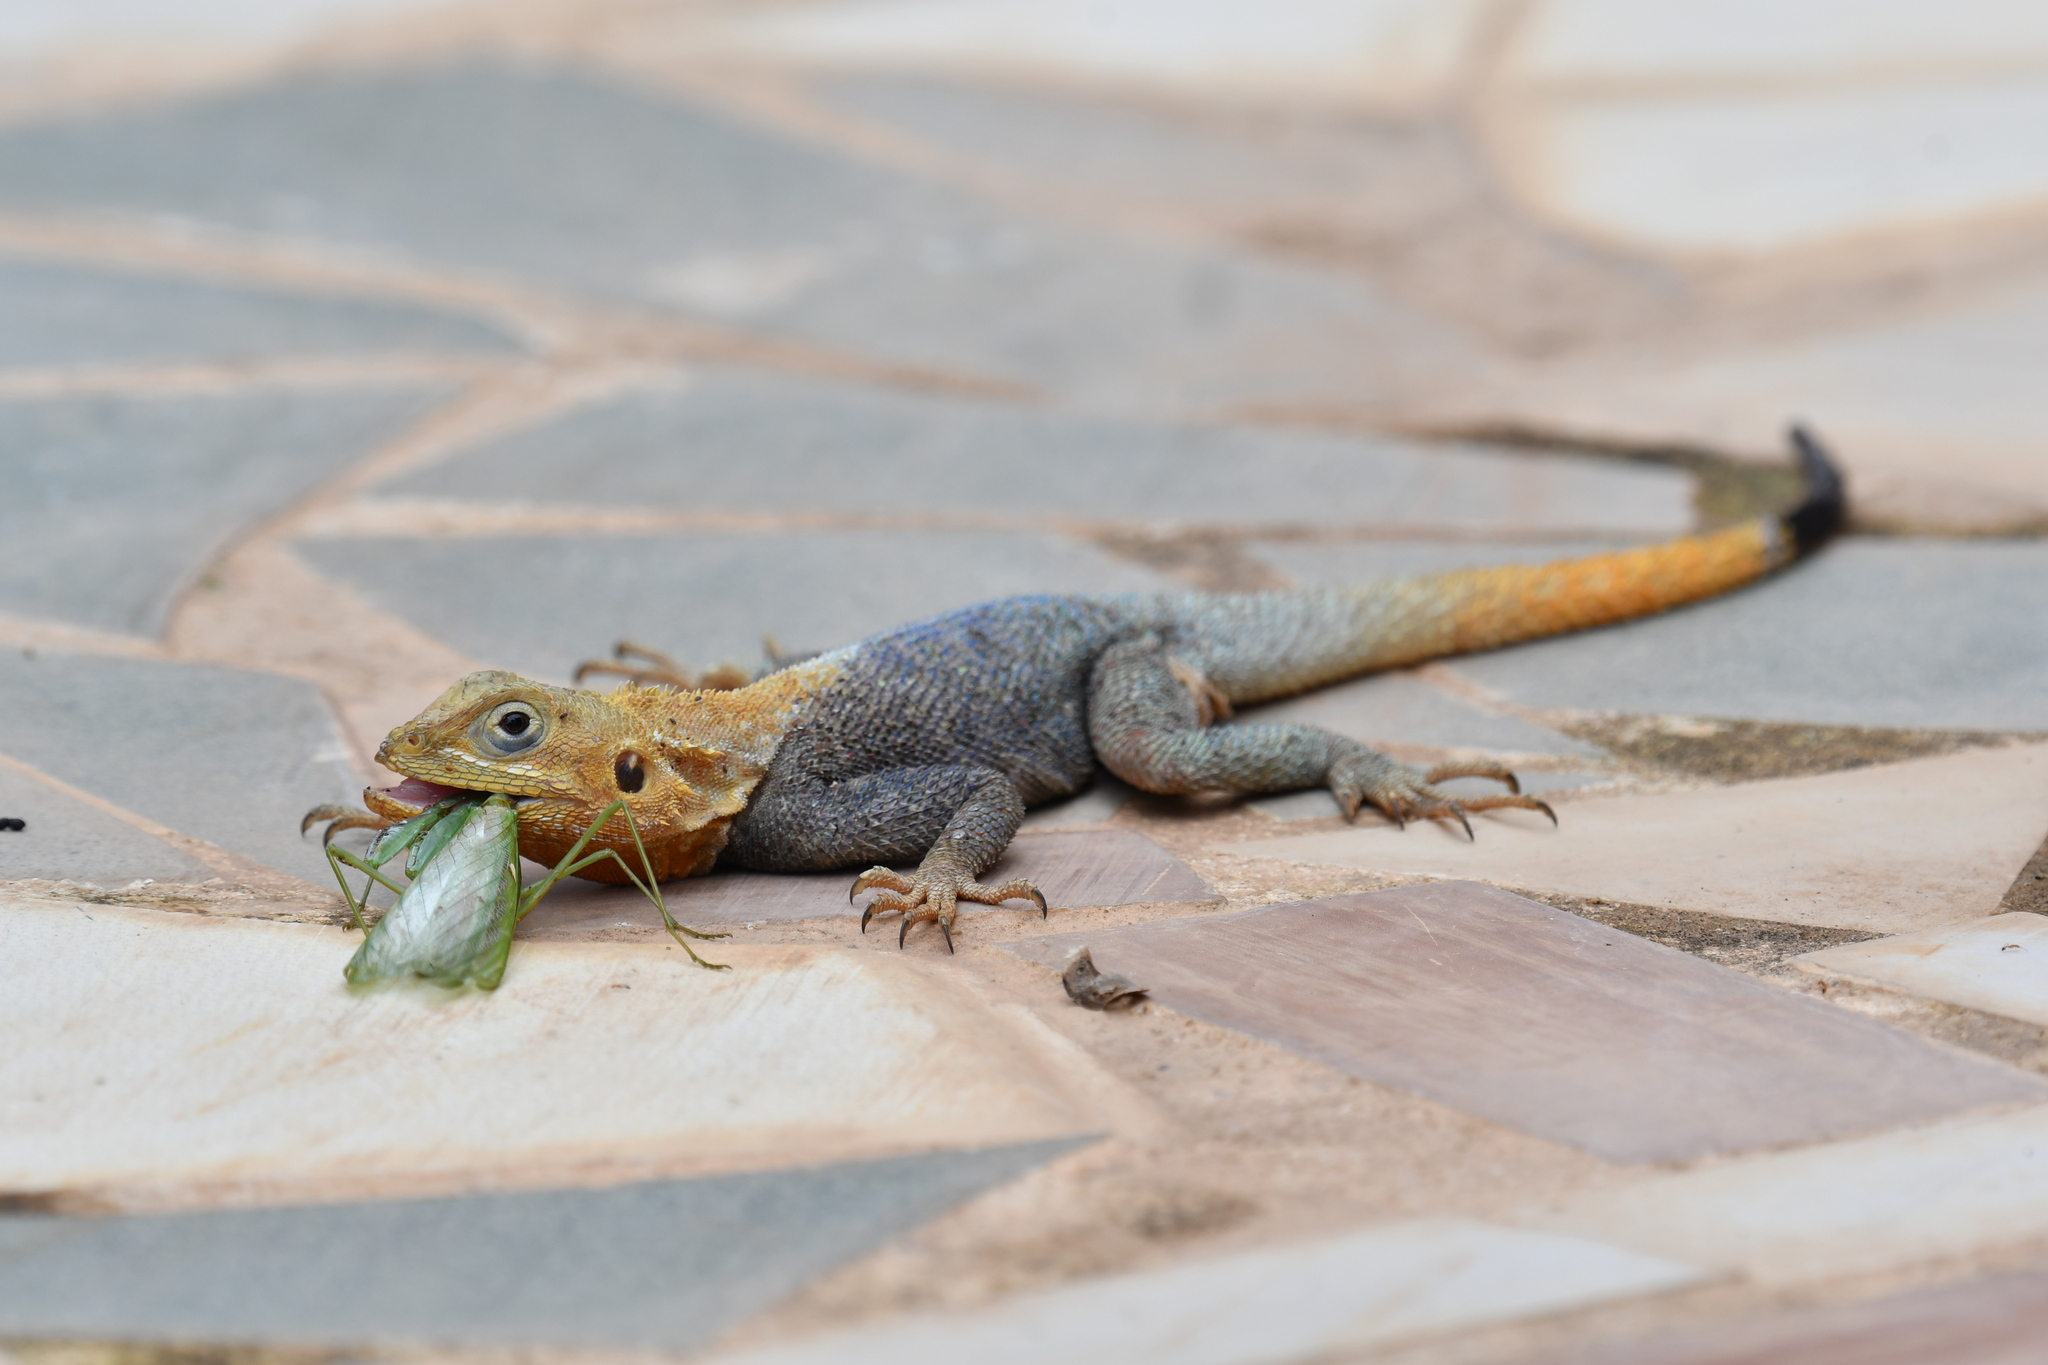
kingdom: Animalia
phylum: Chordata
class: Squamata
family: Agamidae
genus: Agama
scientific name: Agama picticauda
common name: Red-headed agama
